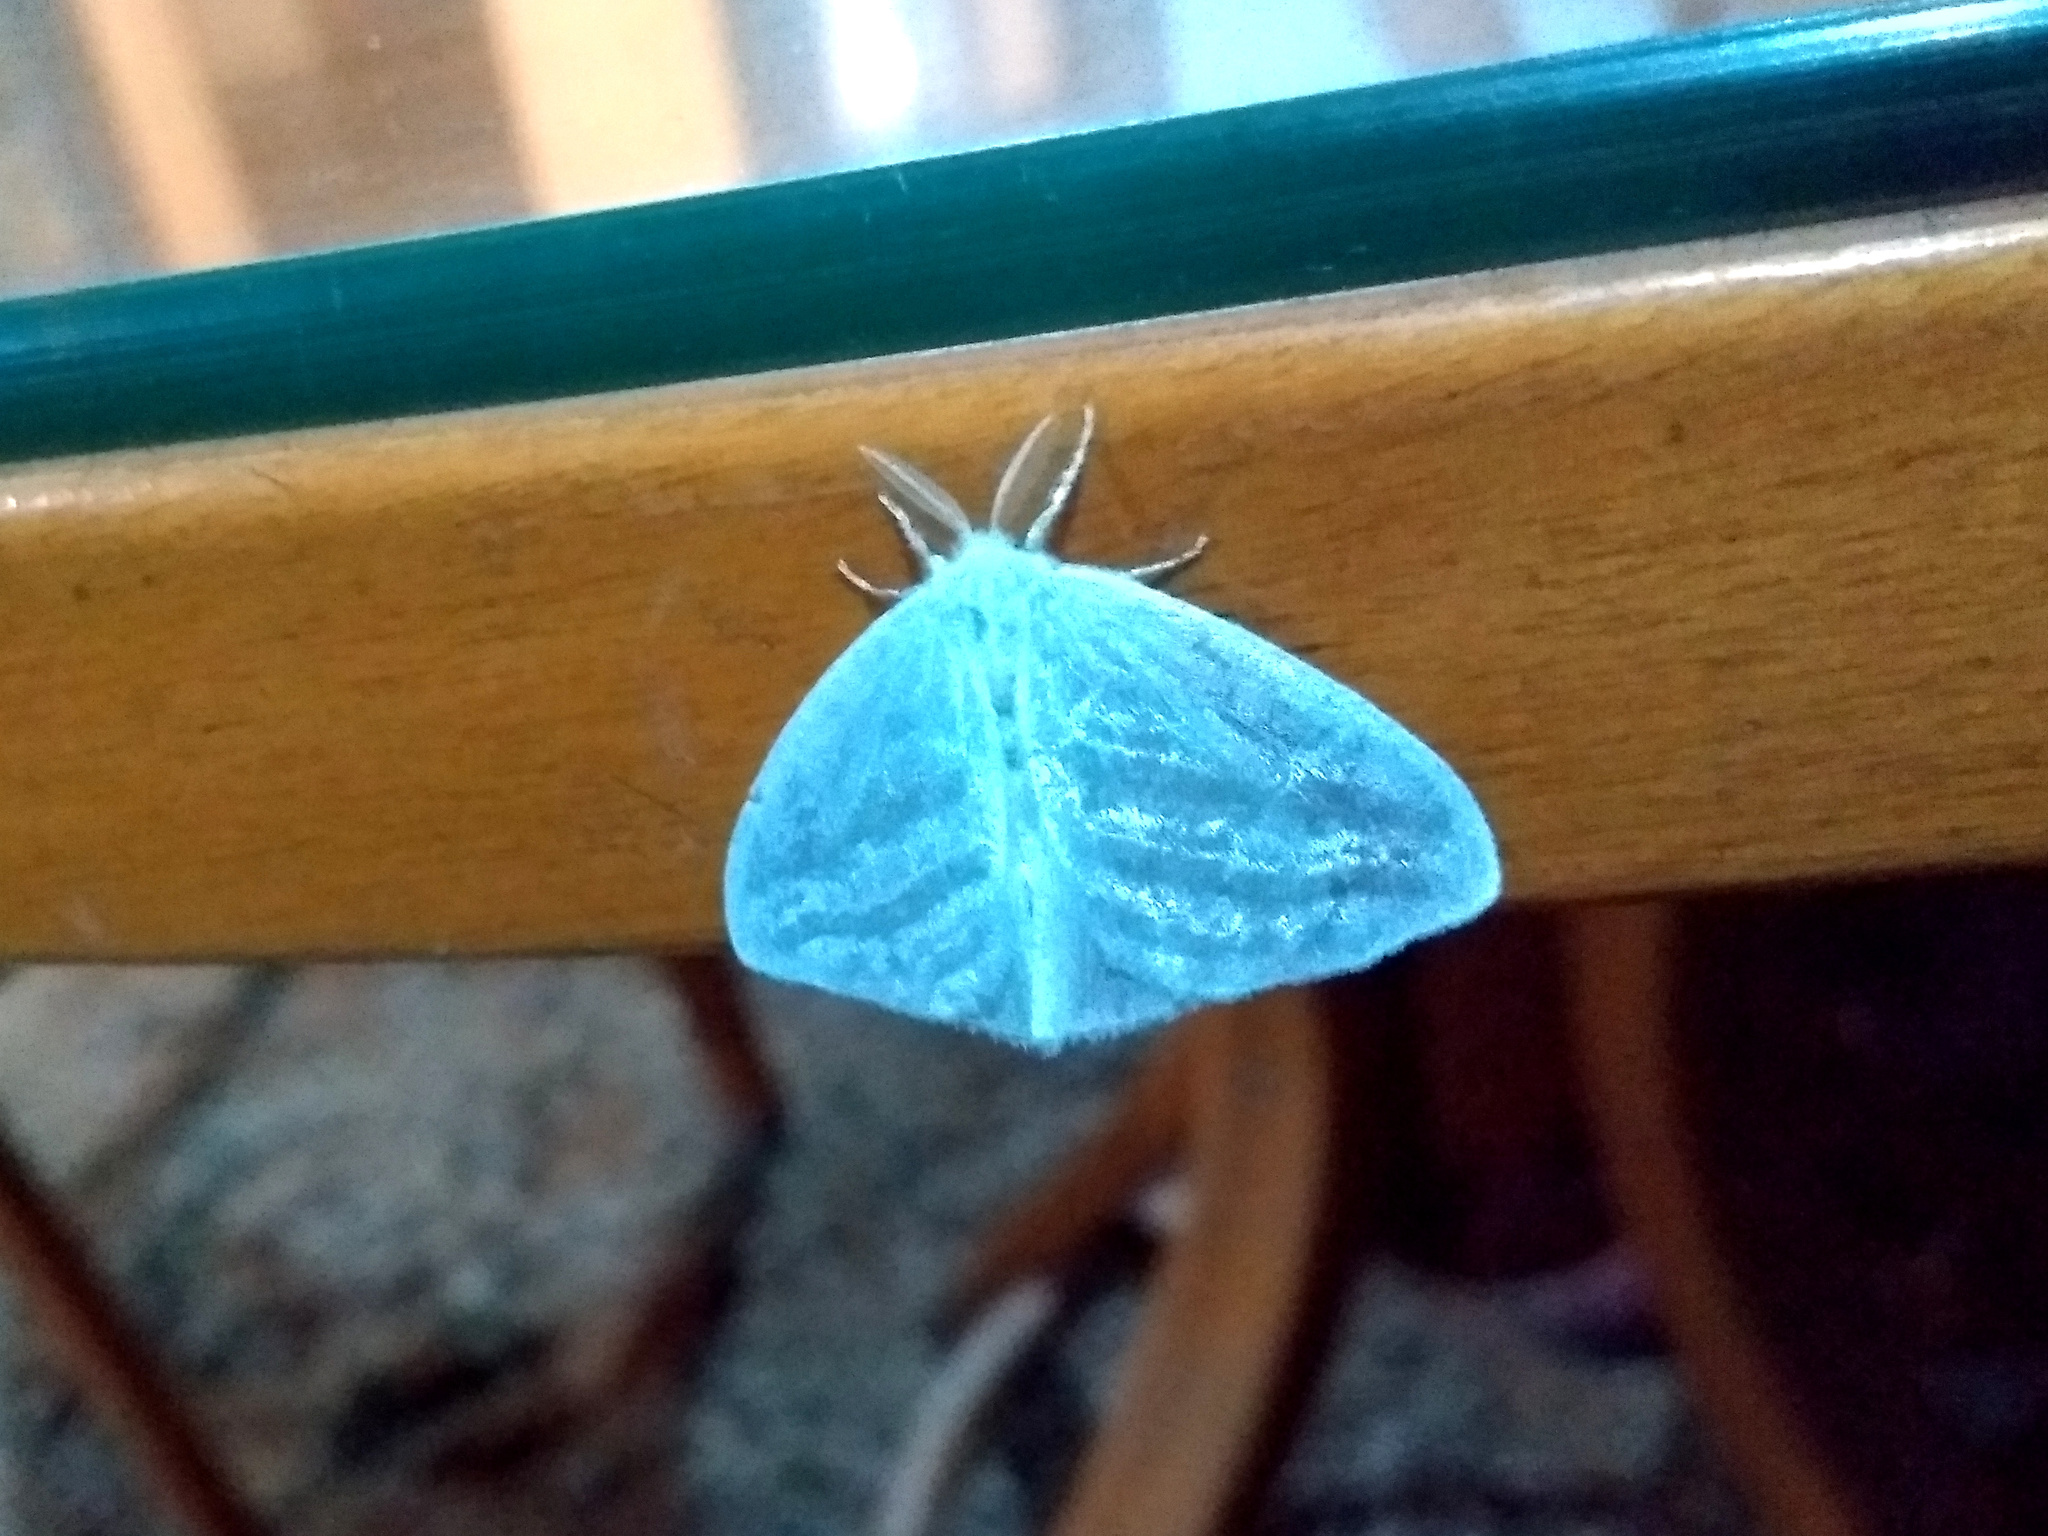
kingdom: Animalia
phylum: Arthropoda
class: Insecta
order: Lepidoptera
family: Erebidae
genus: Caviria
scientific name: Caviria regina
